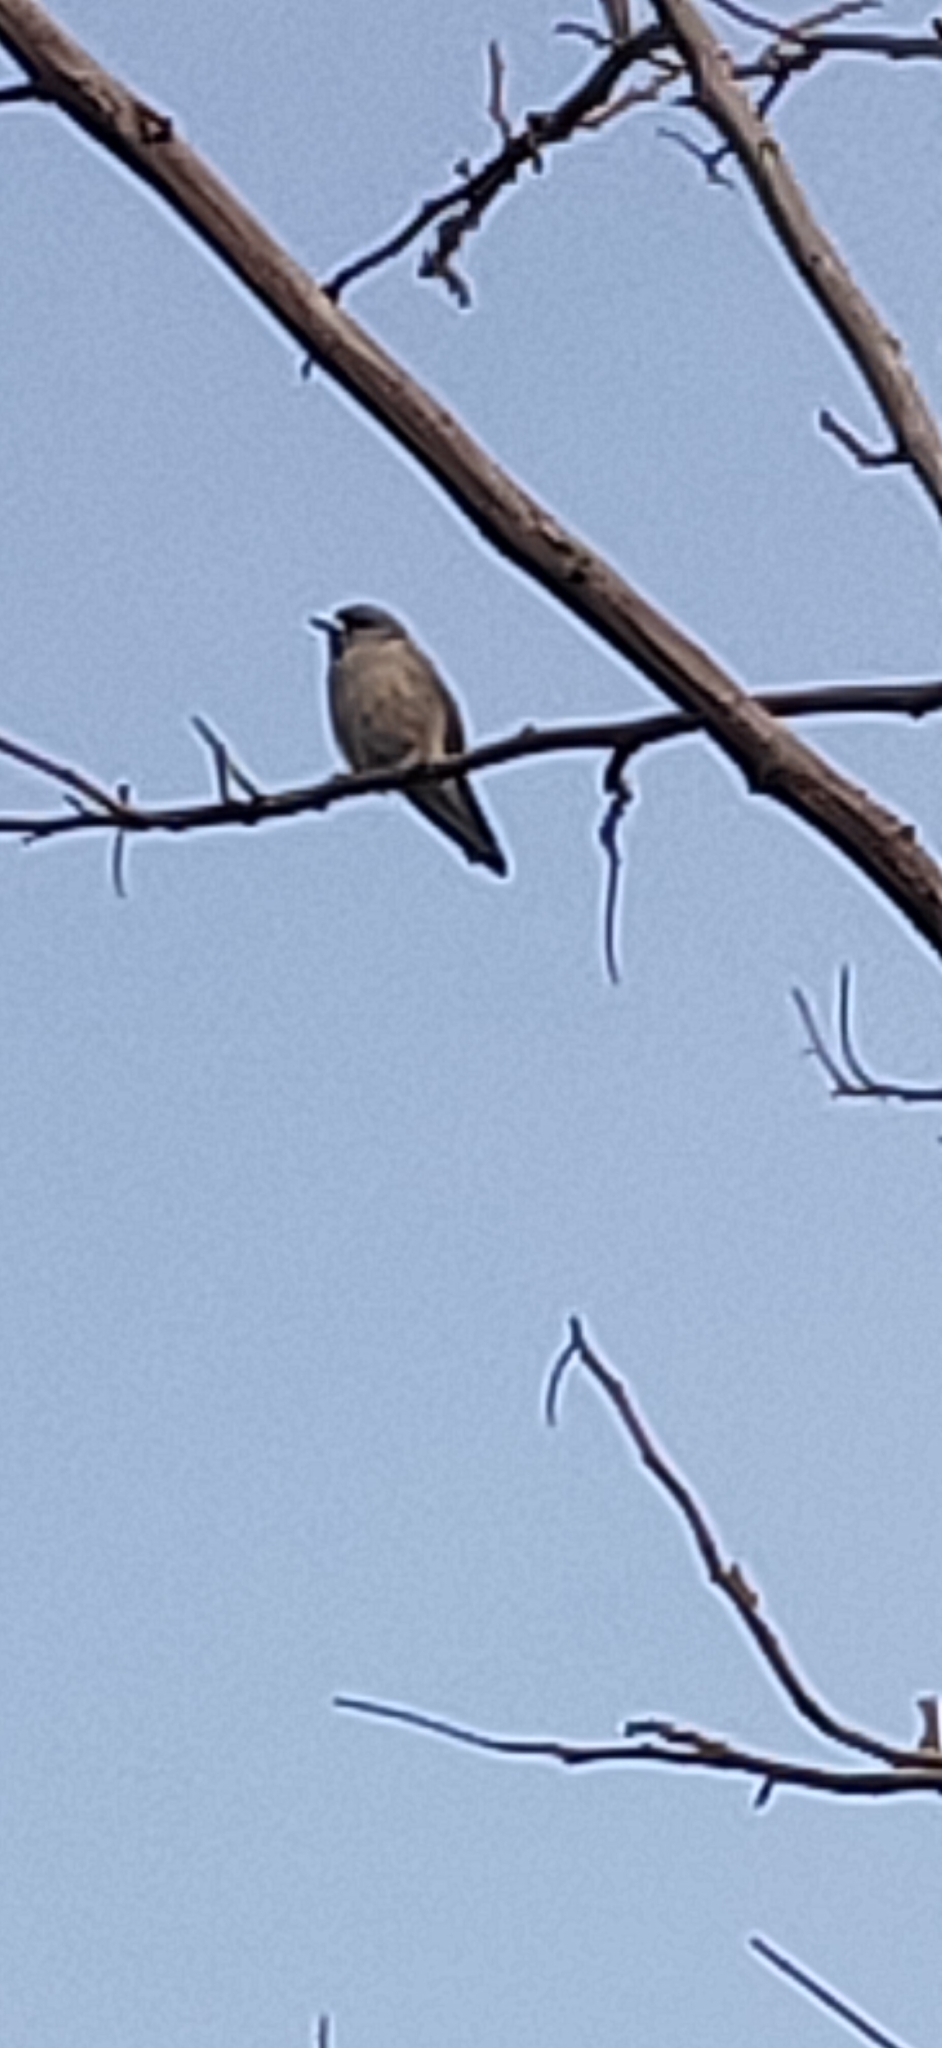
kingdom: Animalia
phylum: Chordata
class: Aves
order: Passeriformes
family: Artamidae
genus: Artamus
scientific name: Artamus fuscus
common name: Ashy woodswallow
